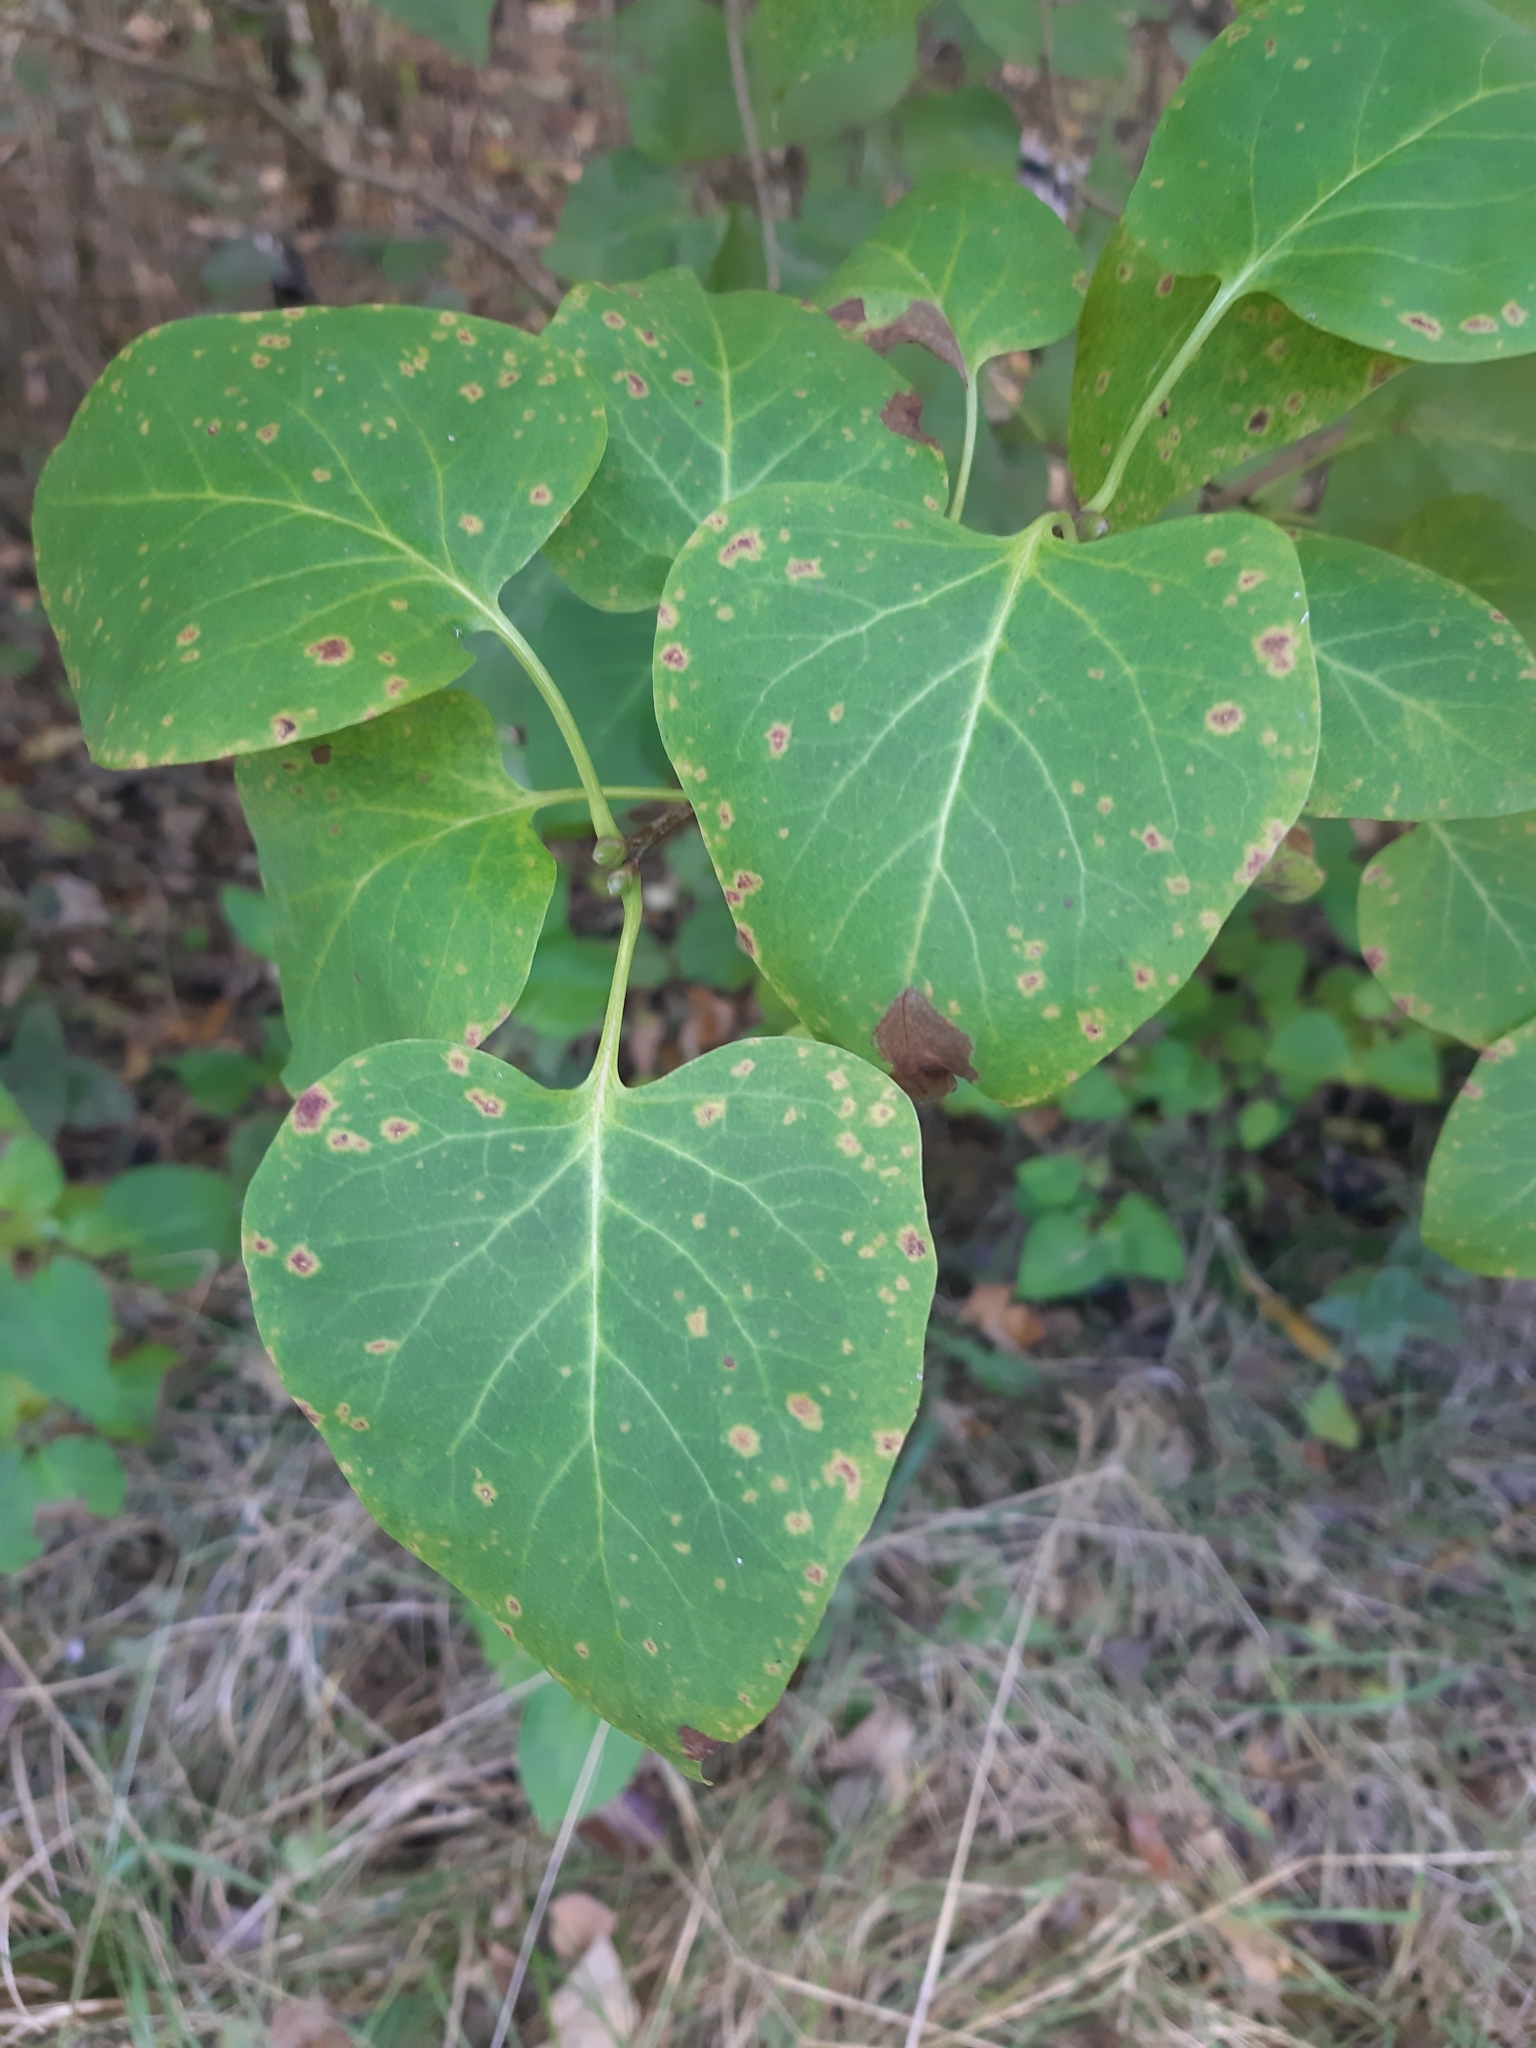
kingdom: Plantae
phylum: Tracheophyta
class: Magnoliopsida
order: Lamiales
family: Oleaceae
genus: Syringa
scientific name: Syringa vulgaris
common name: Common lilac
